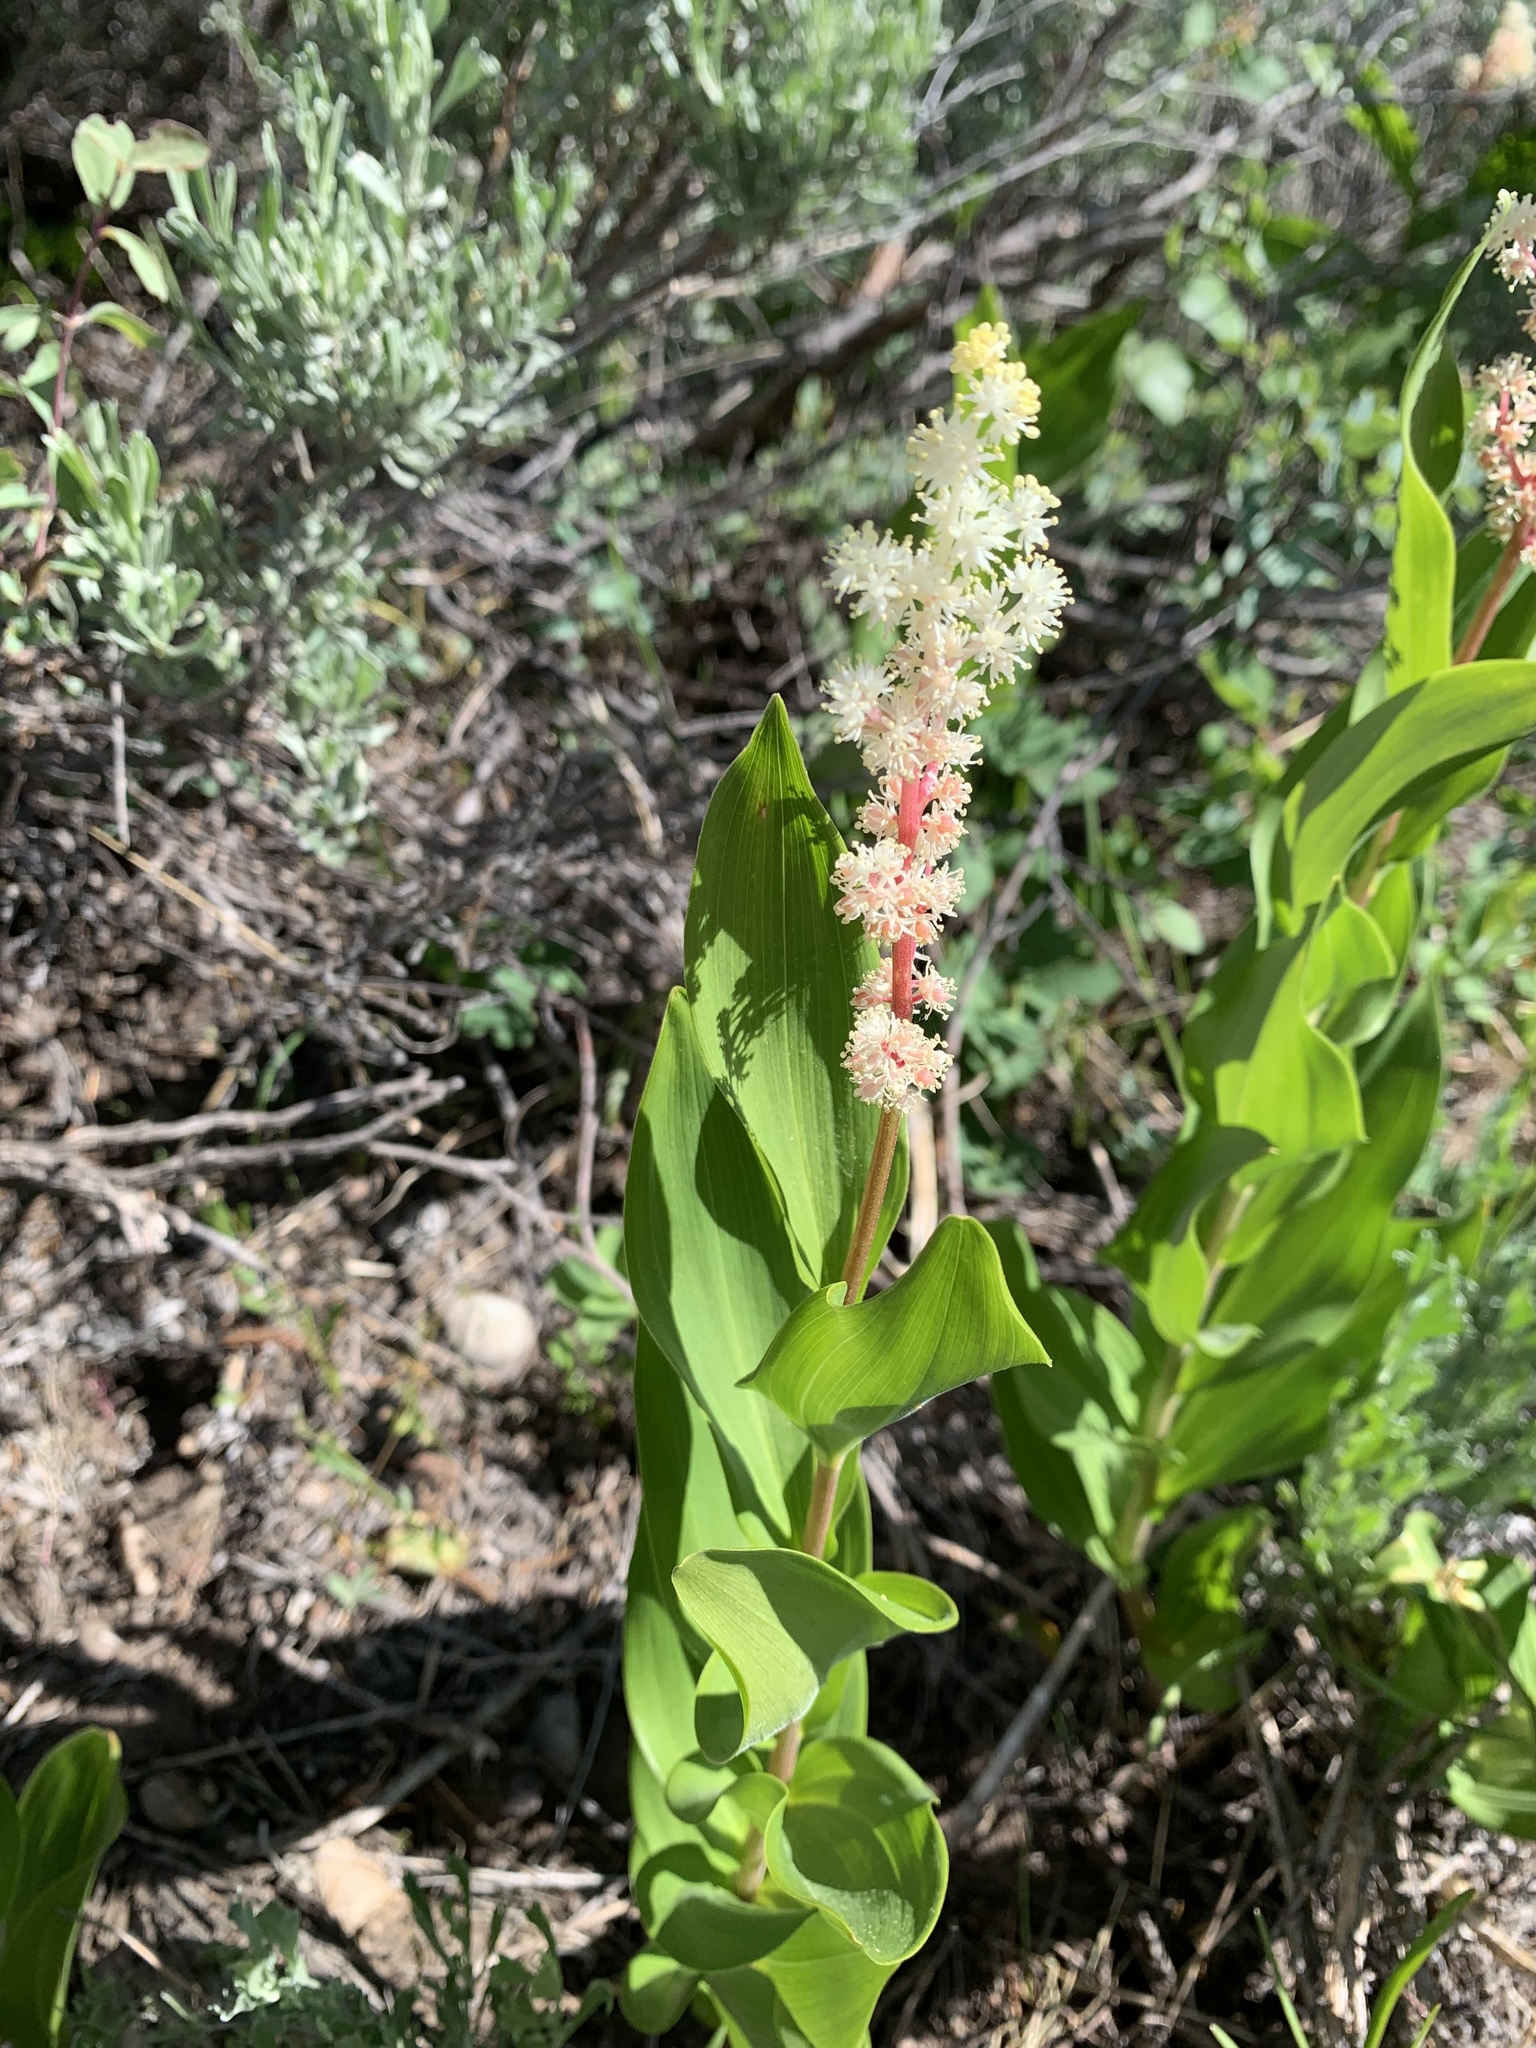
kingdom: Plantae
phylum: Tracheophyta
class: Liliopsida
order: Asparagales
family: Asparagaceae
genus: Maianthemum
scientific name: Maianthemum racemosum
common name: False spikenard
